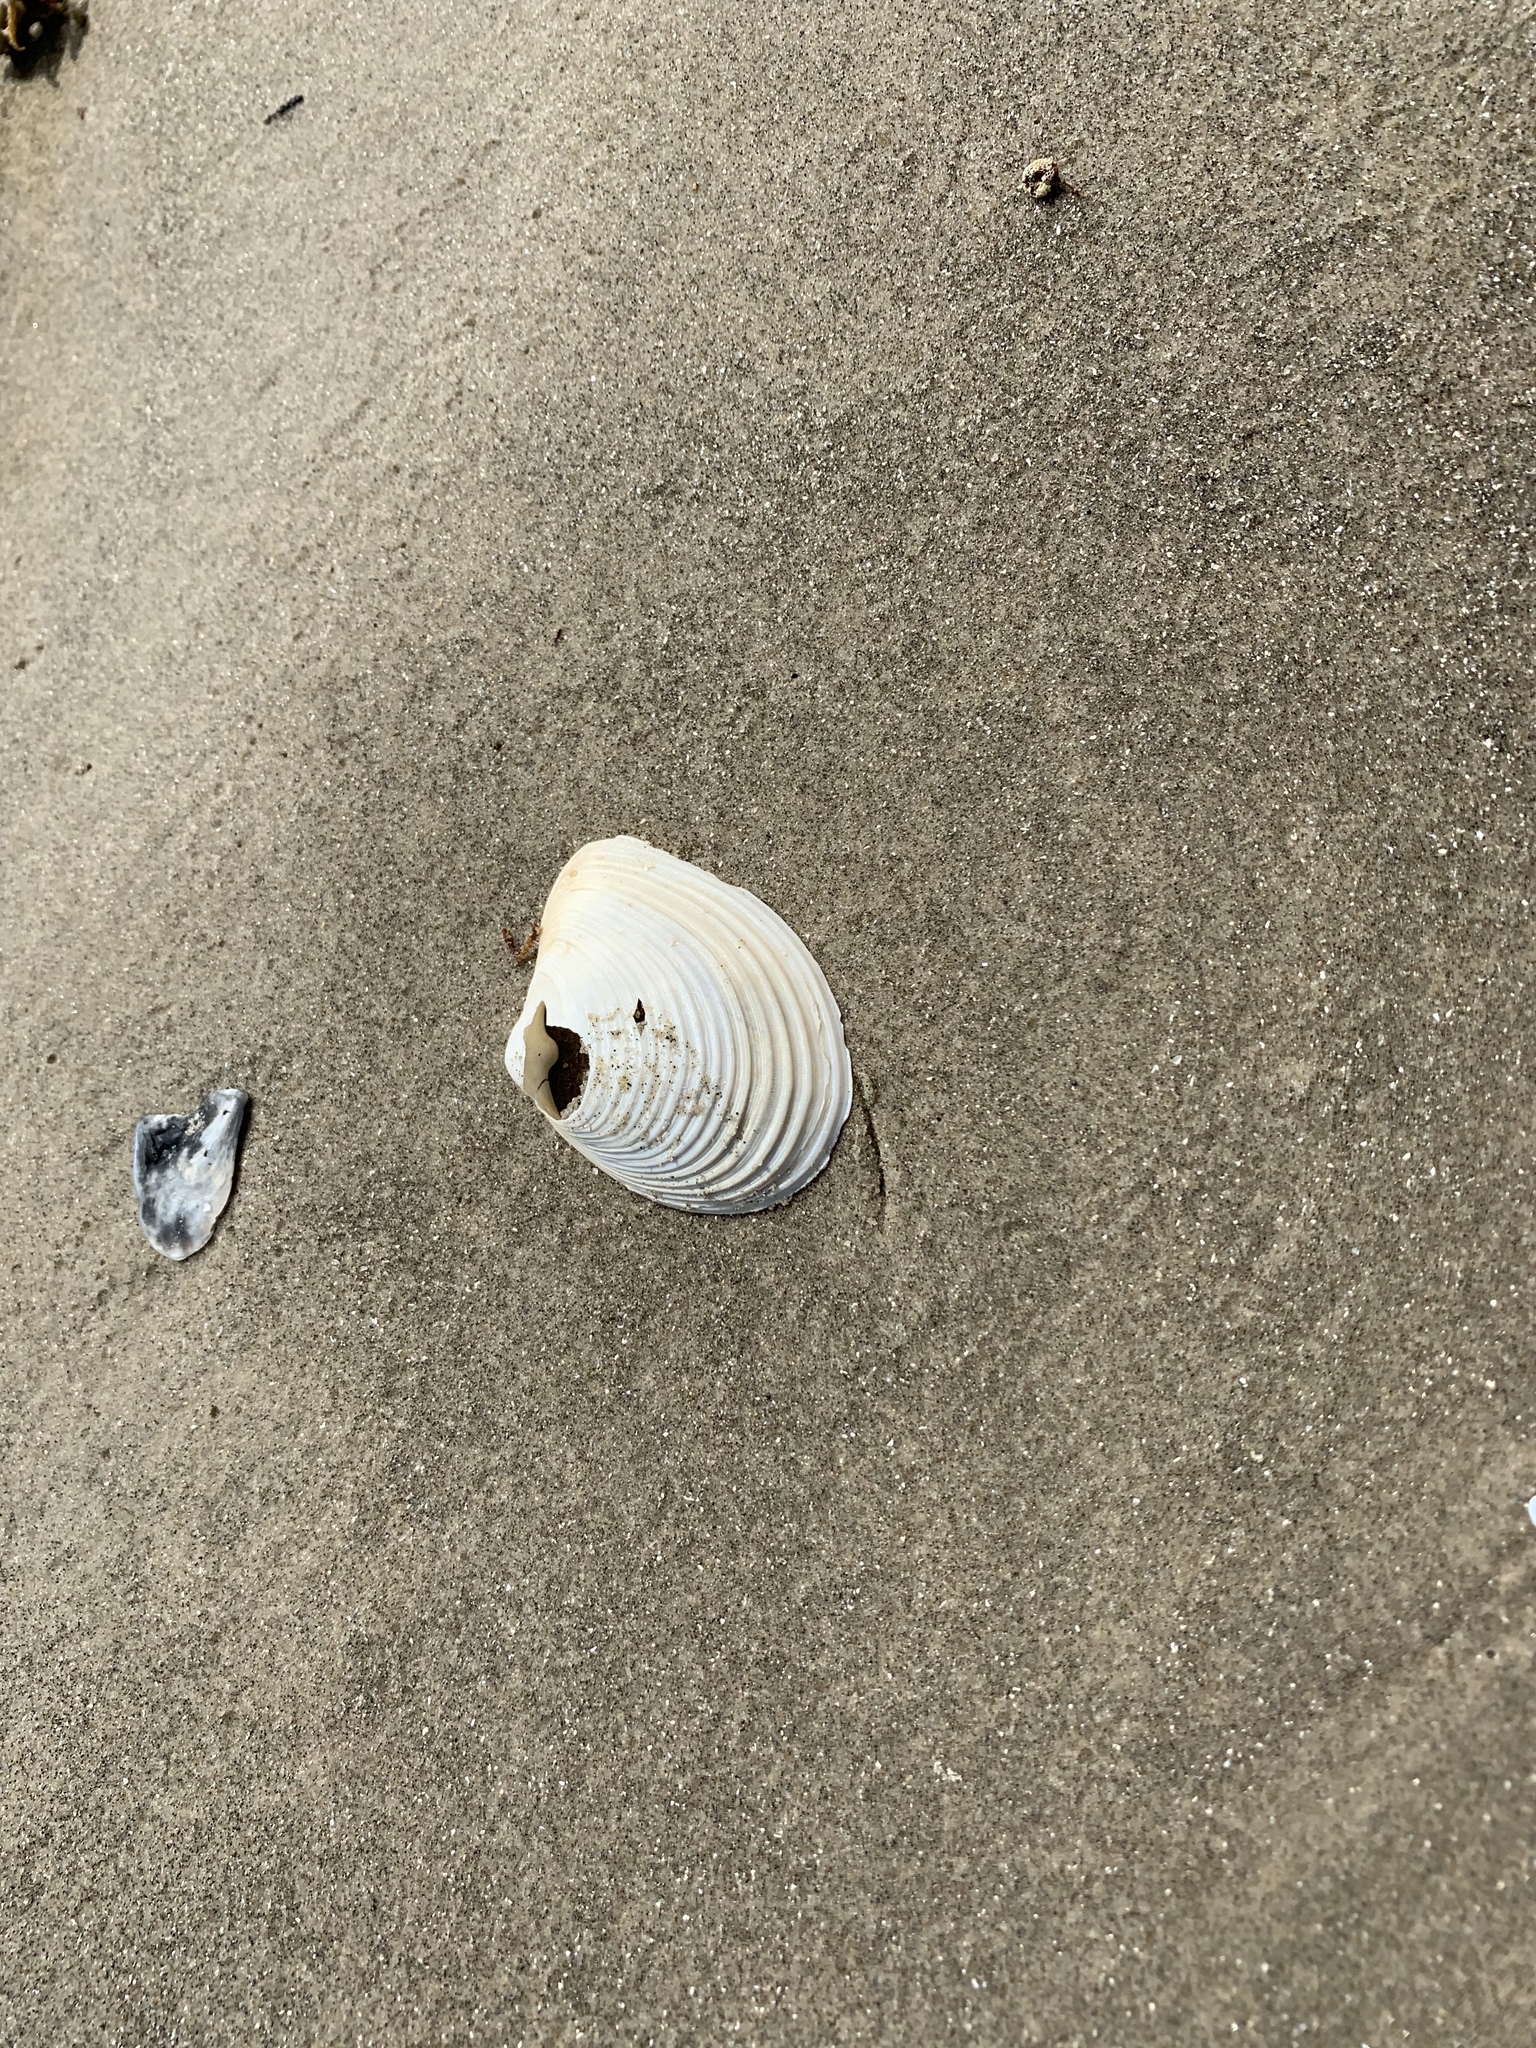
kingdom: Animalia
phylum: Mollusca
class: Bivalvia
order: Venerida
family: Anatinellidae
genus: Raeta
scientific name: Raeta plicatella
